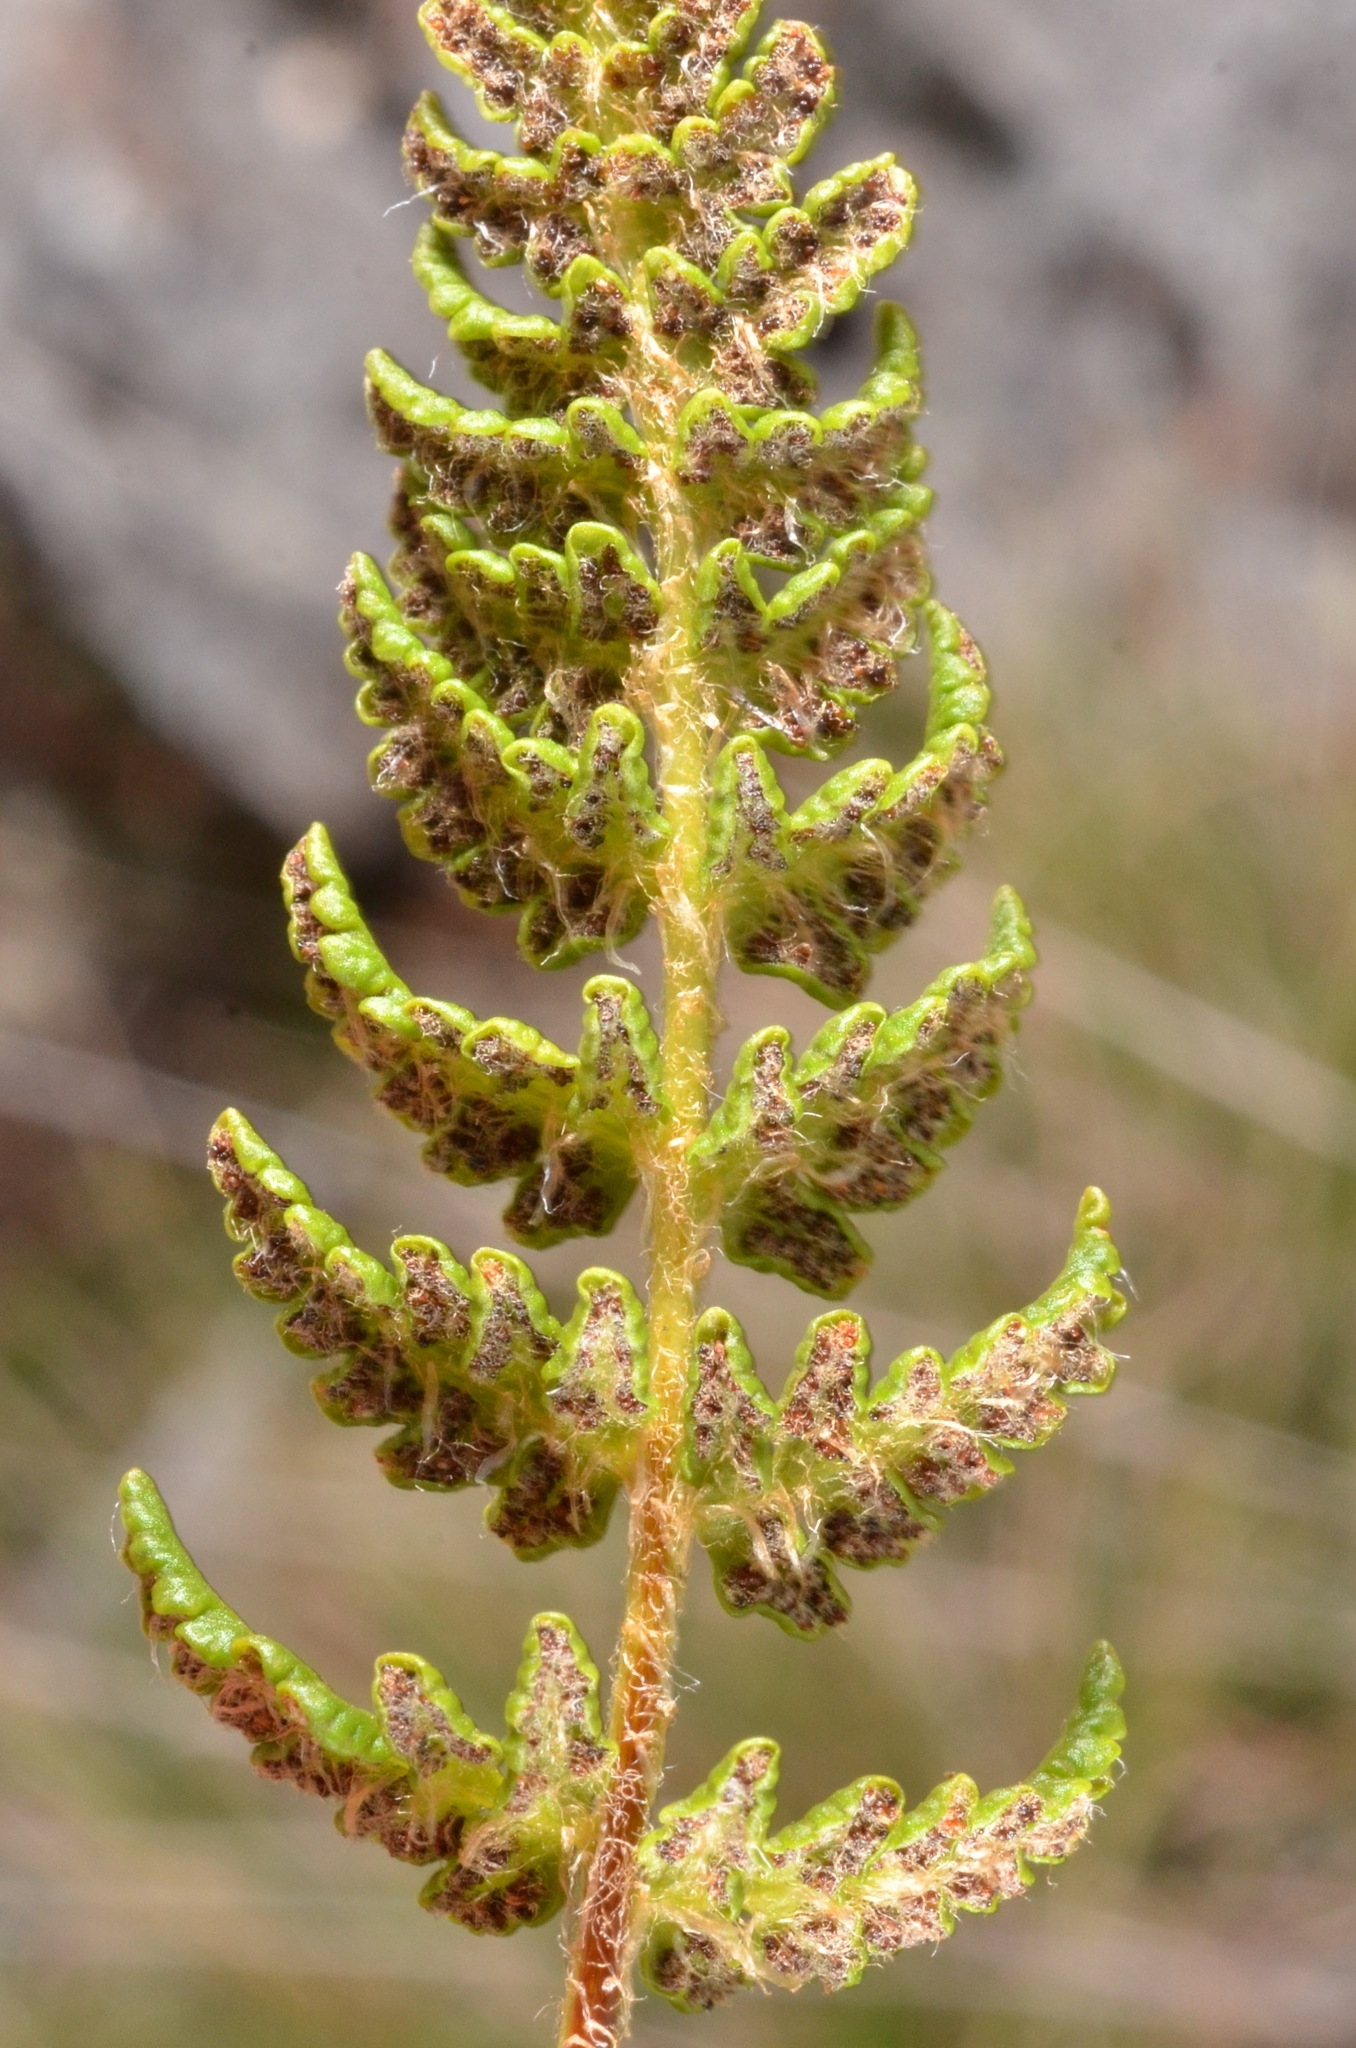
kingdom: Plantae
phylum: Tracheophyta
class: Polypodiopsida
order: Polypodiales
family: Woodsiaceae
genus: Woodsia
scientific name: Woodsia ilvensis
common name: Fragrant woodsia
